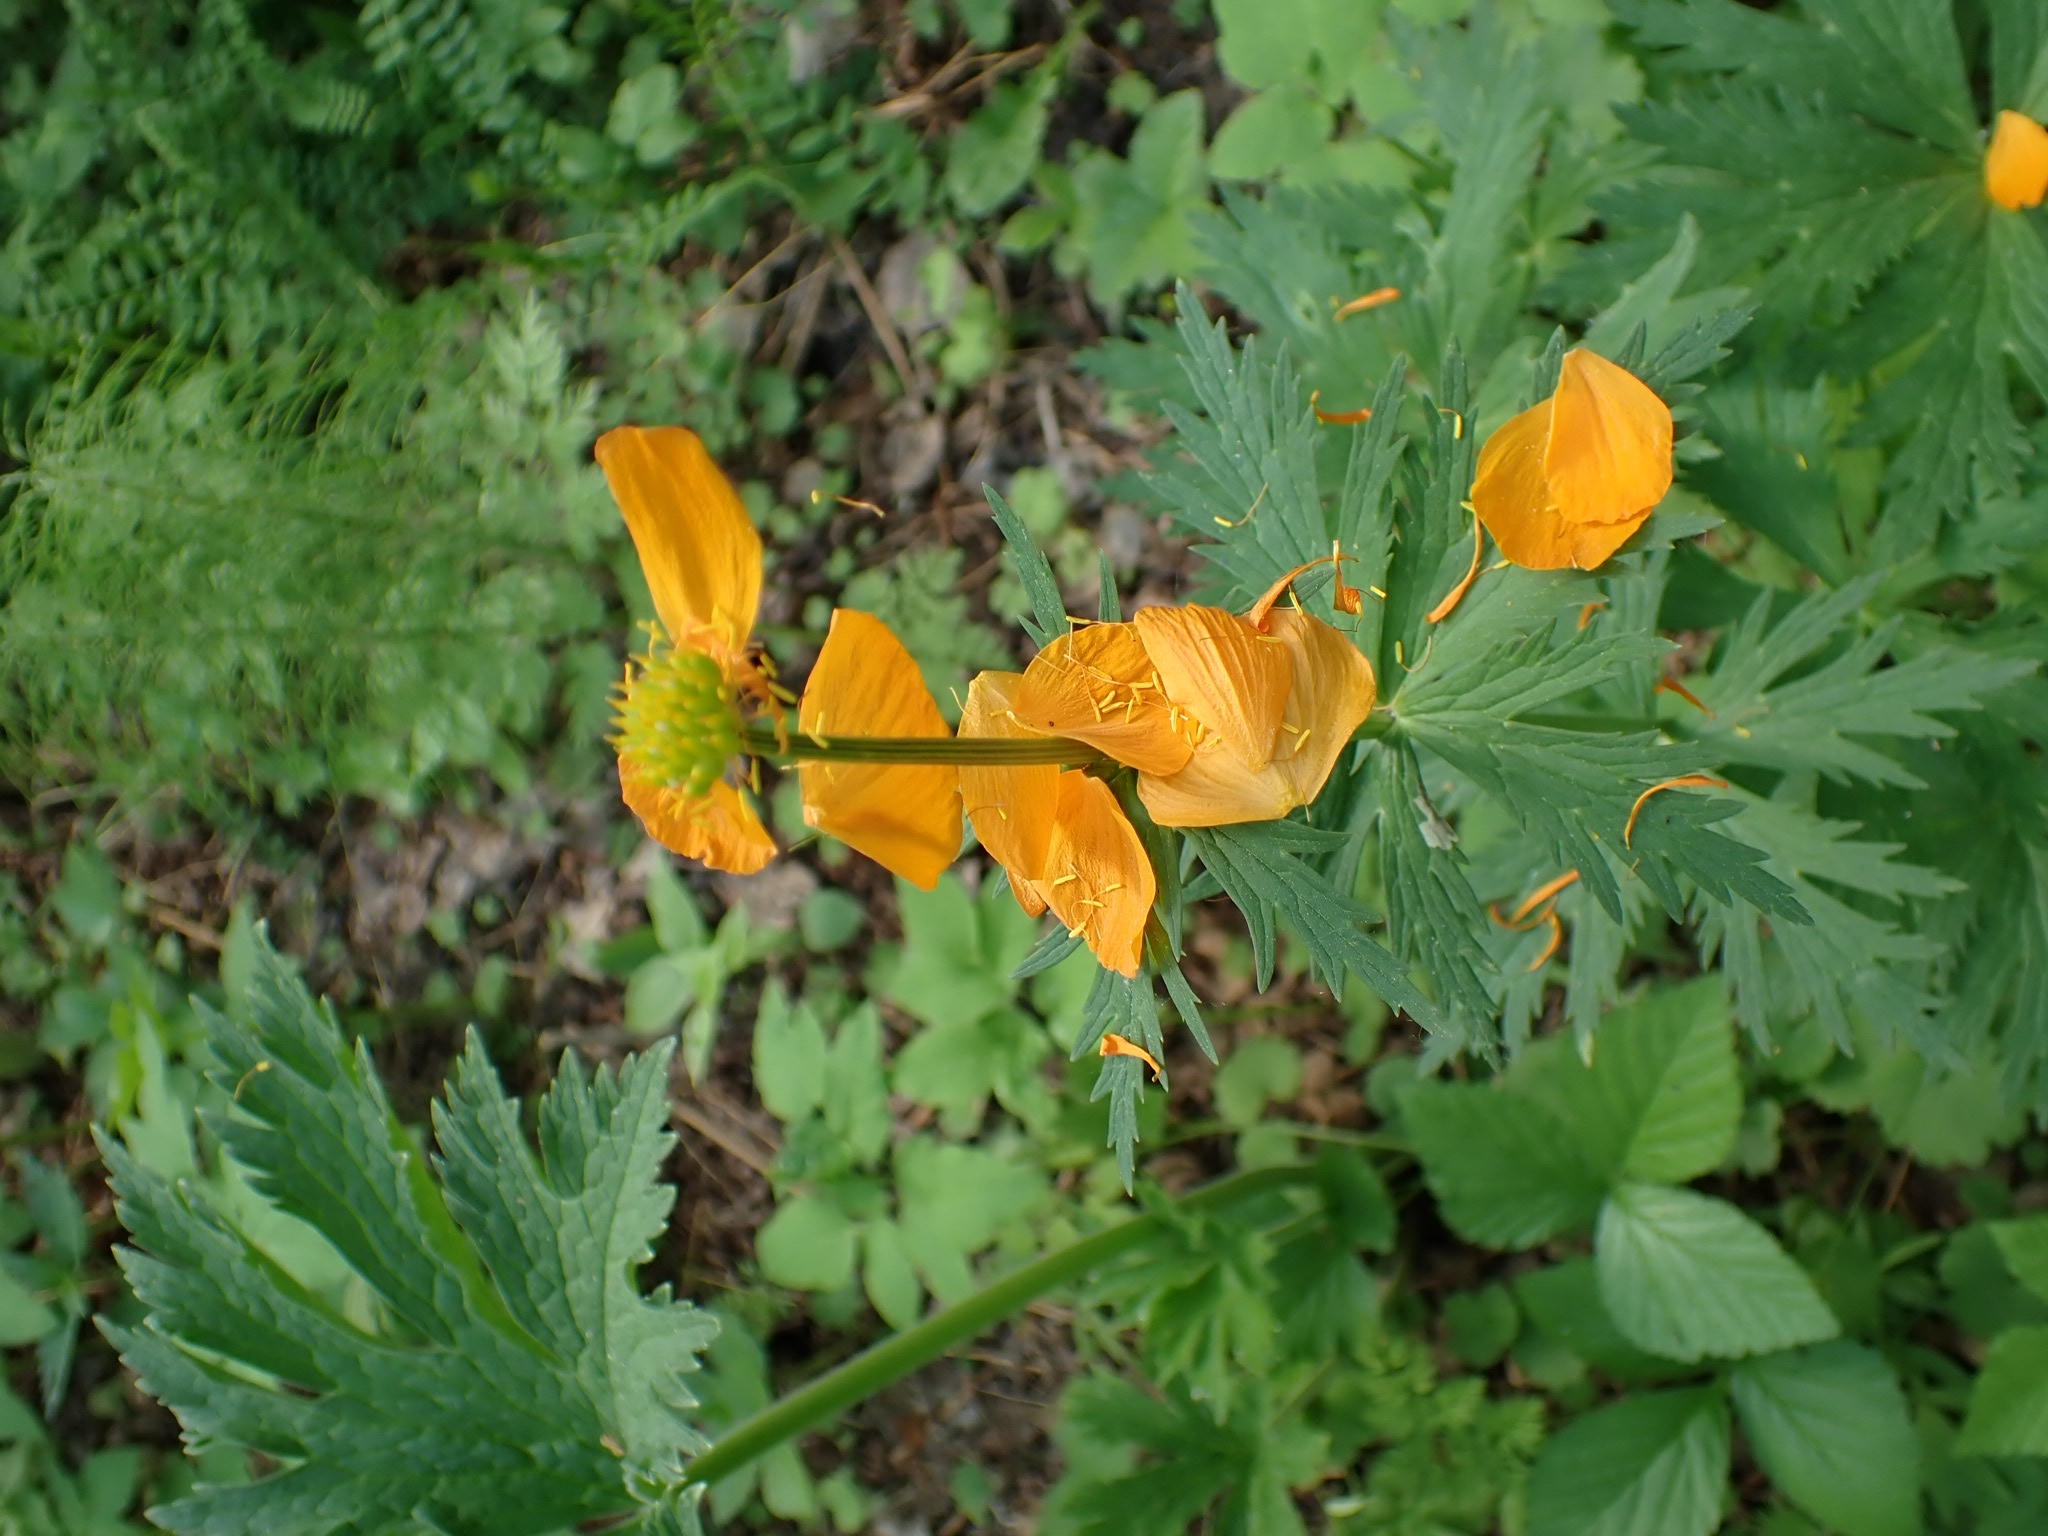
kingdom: Plantae
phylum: Tracheophyta
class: Magnoliopsida
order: Ranunculales
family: Ranunculaceae
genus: Trollius
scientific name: Trollius asiaticus
